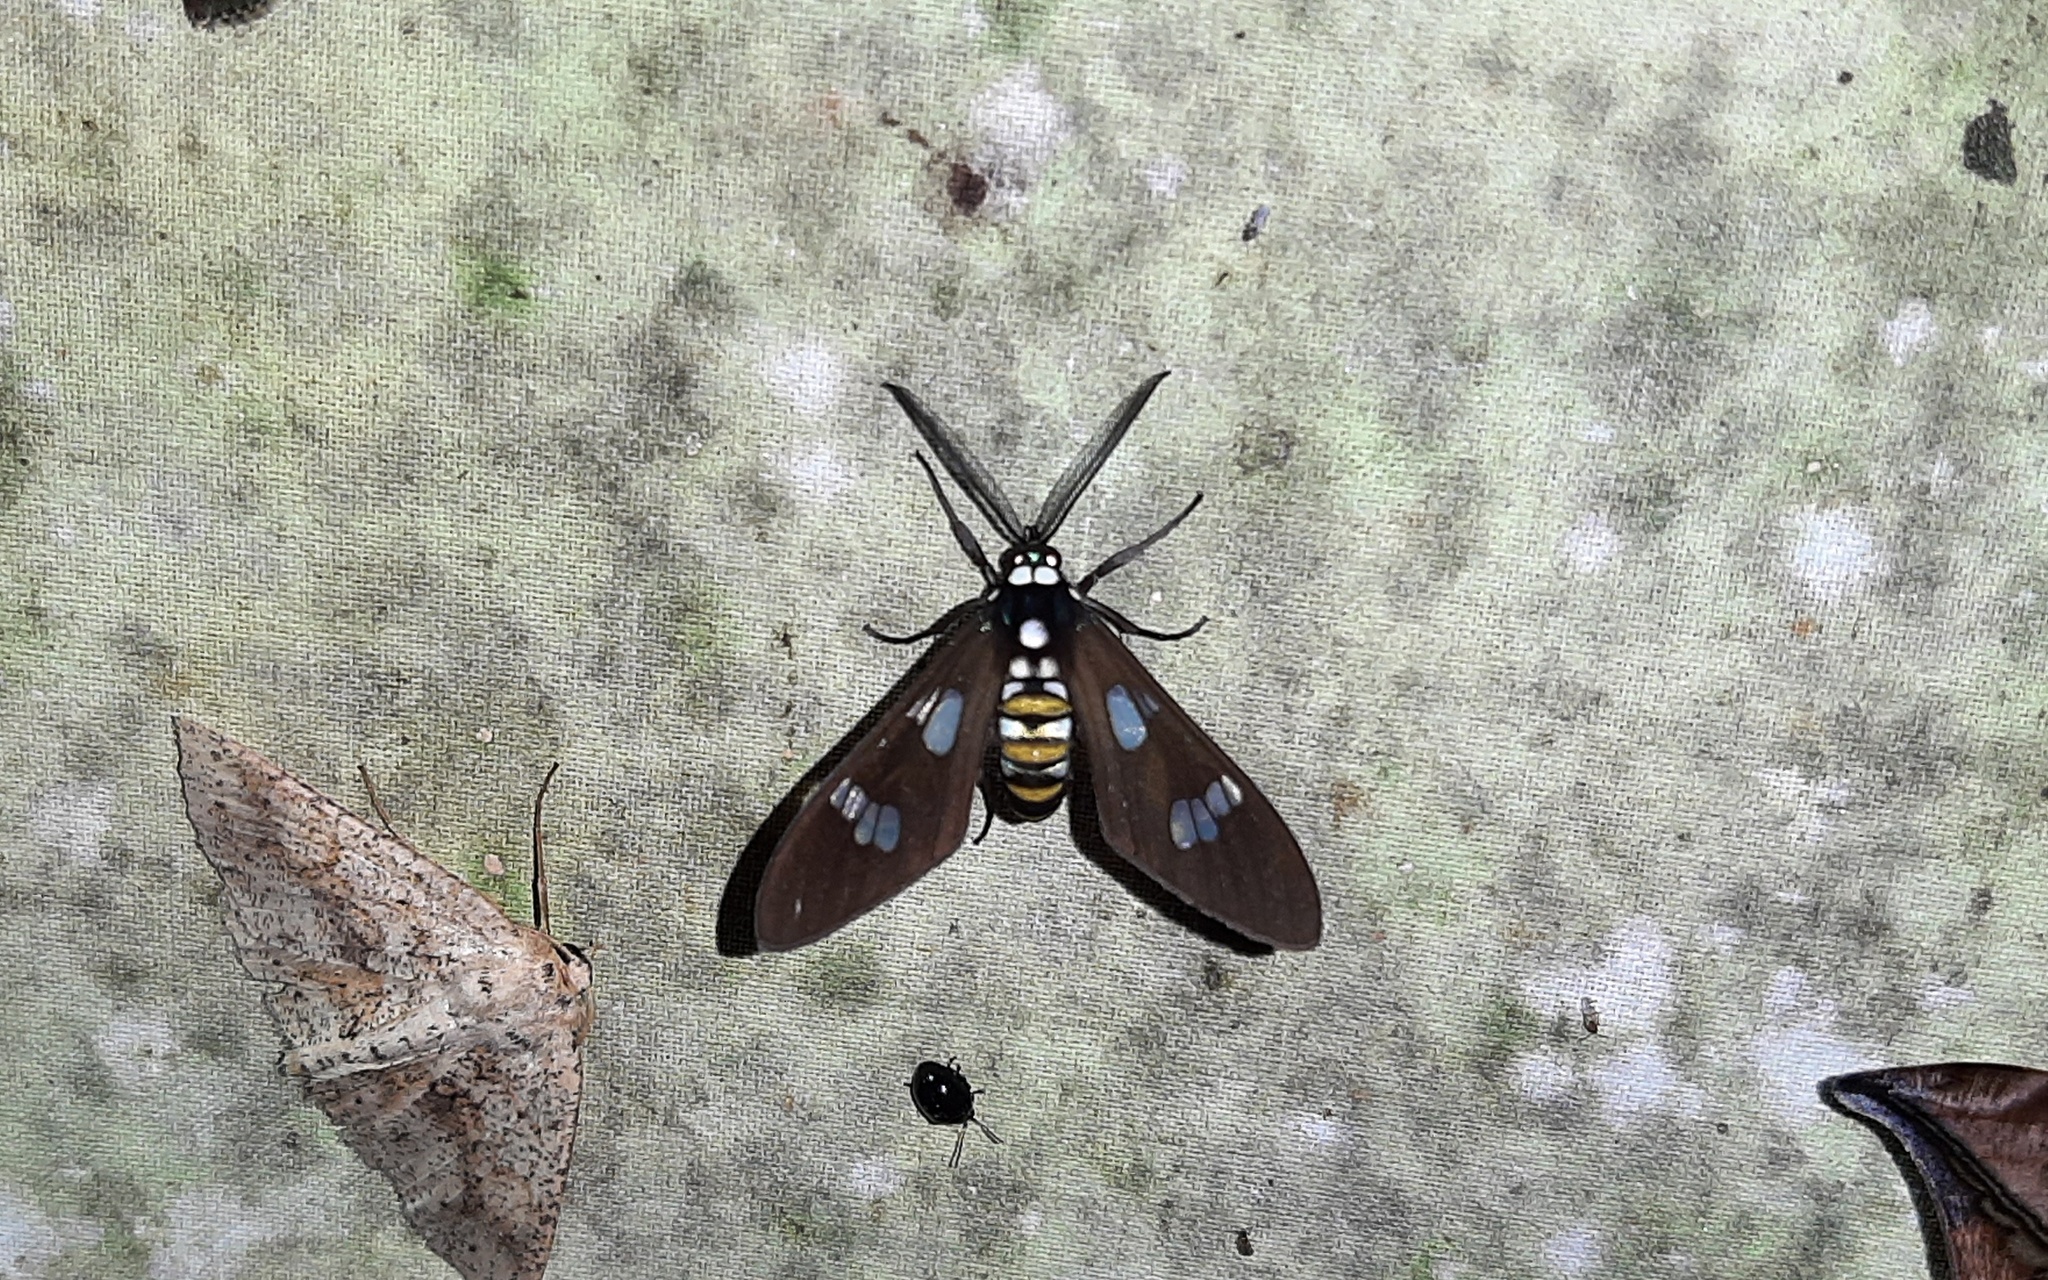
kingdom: Animalia
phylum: Arthropoda
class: Insecta
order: Lepidoptera
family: Erebidae
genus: Phaio
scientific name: Phaio acquiguttata
